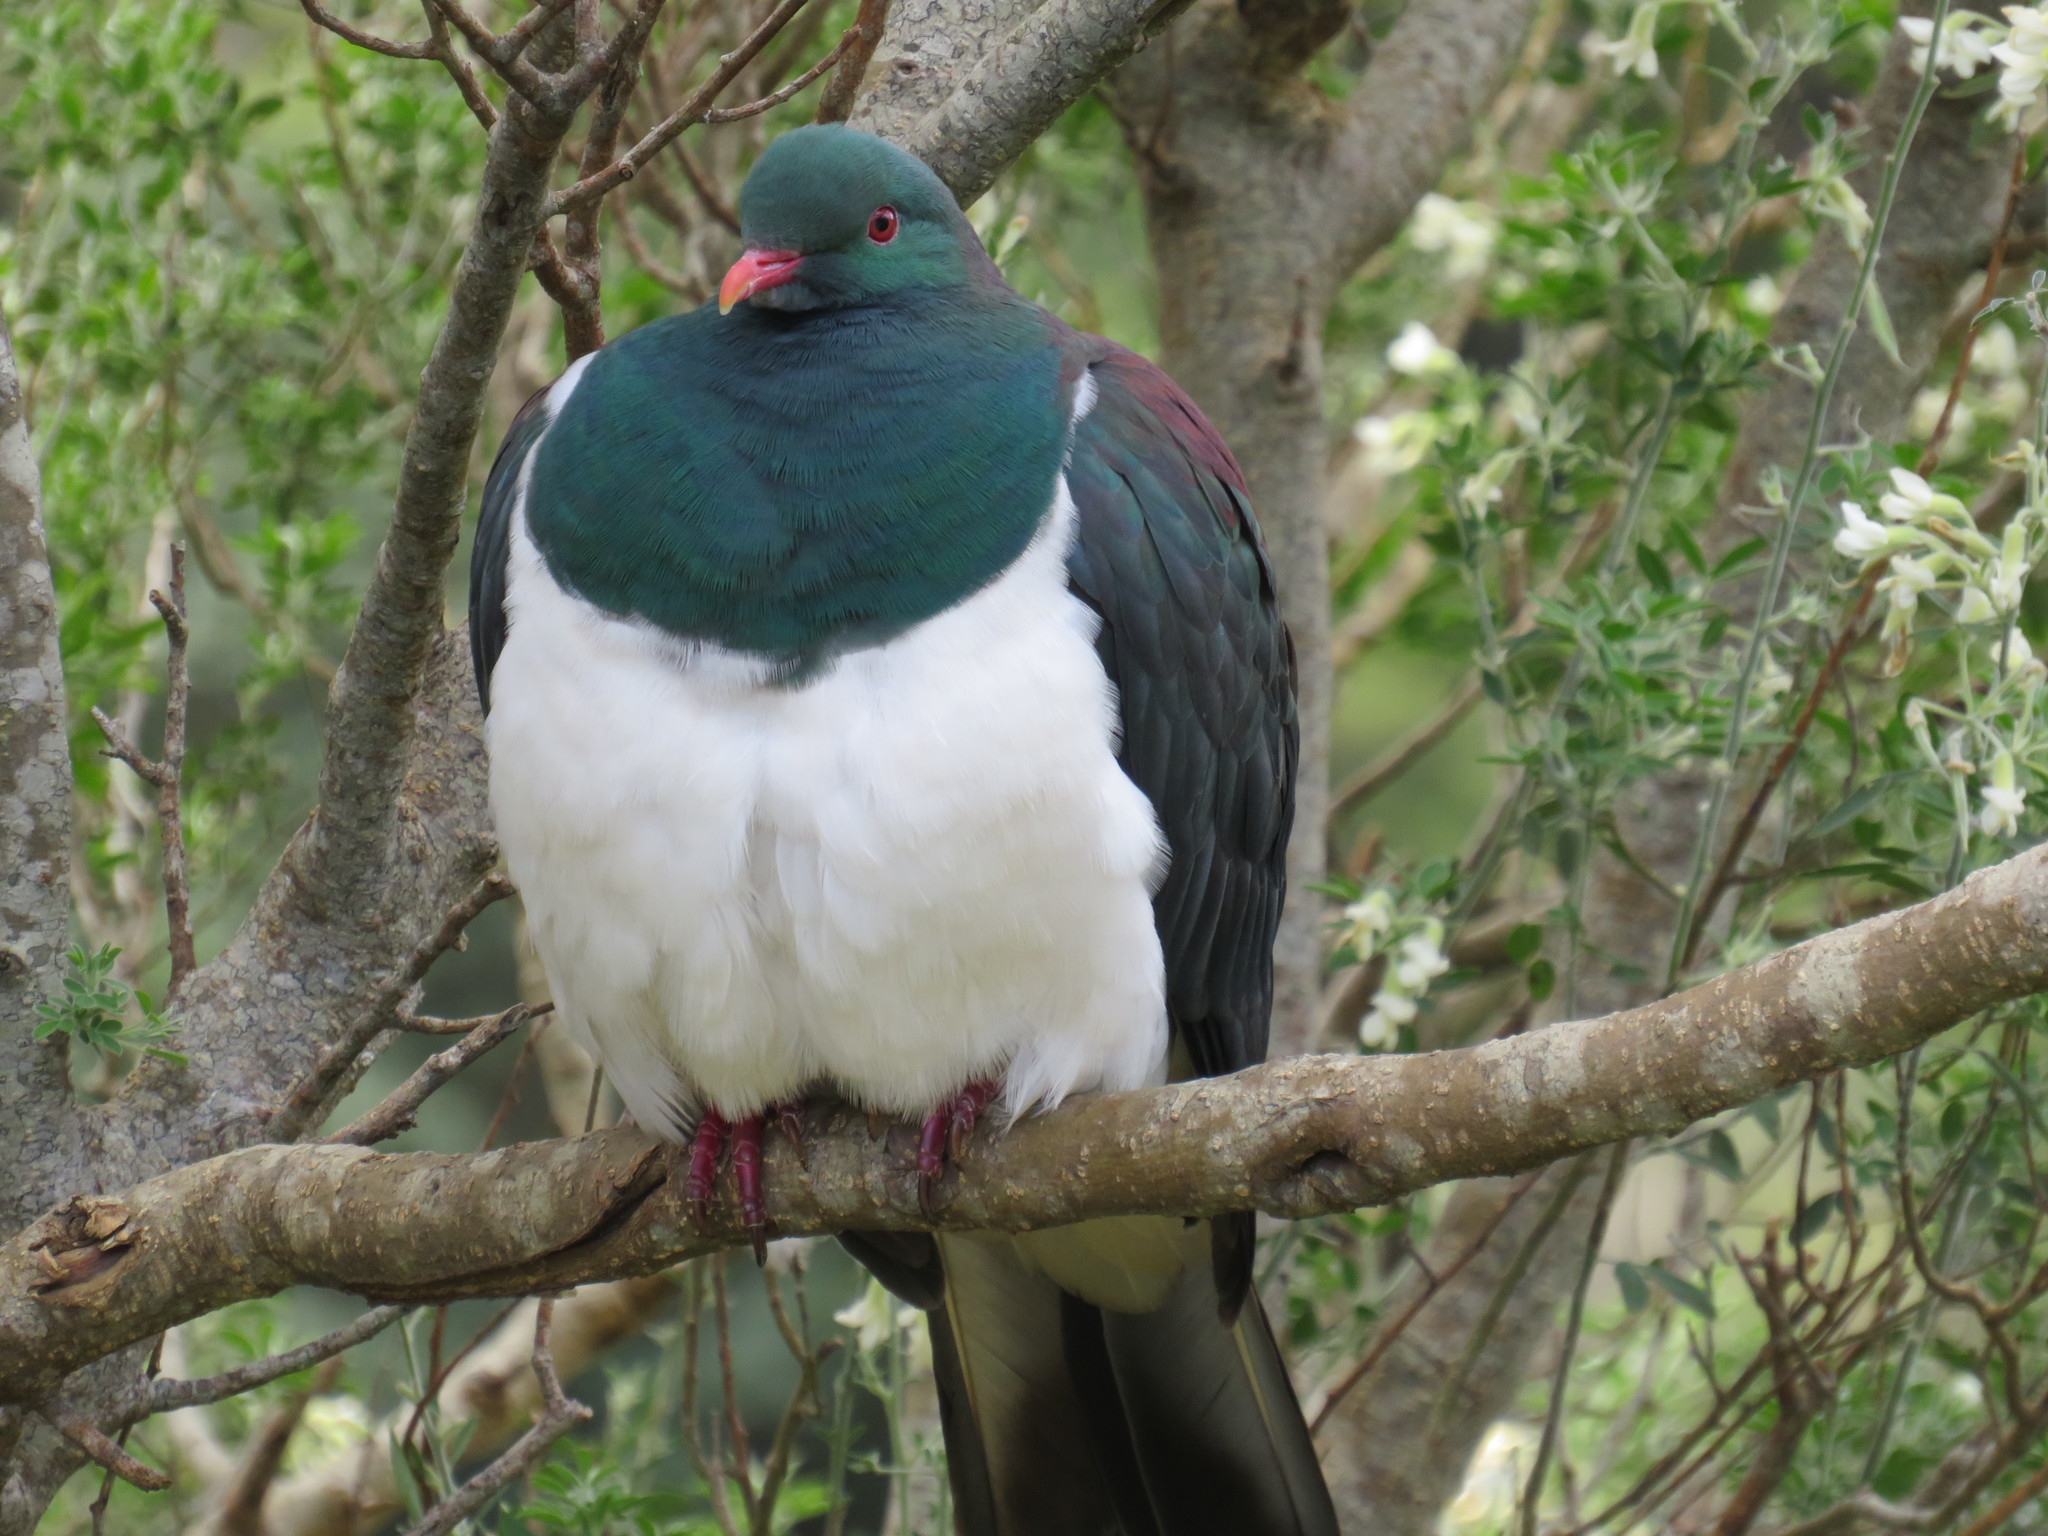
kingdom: Animalia
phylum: Chordata
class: Aves
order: Columbiformes
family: Columbidae
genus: Hemiphaga
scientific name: Hemiphaga novaeseelandiae
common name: New zealand pigeon
